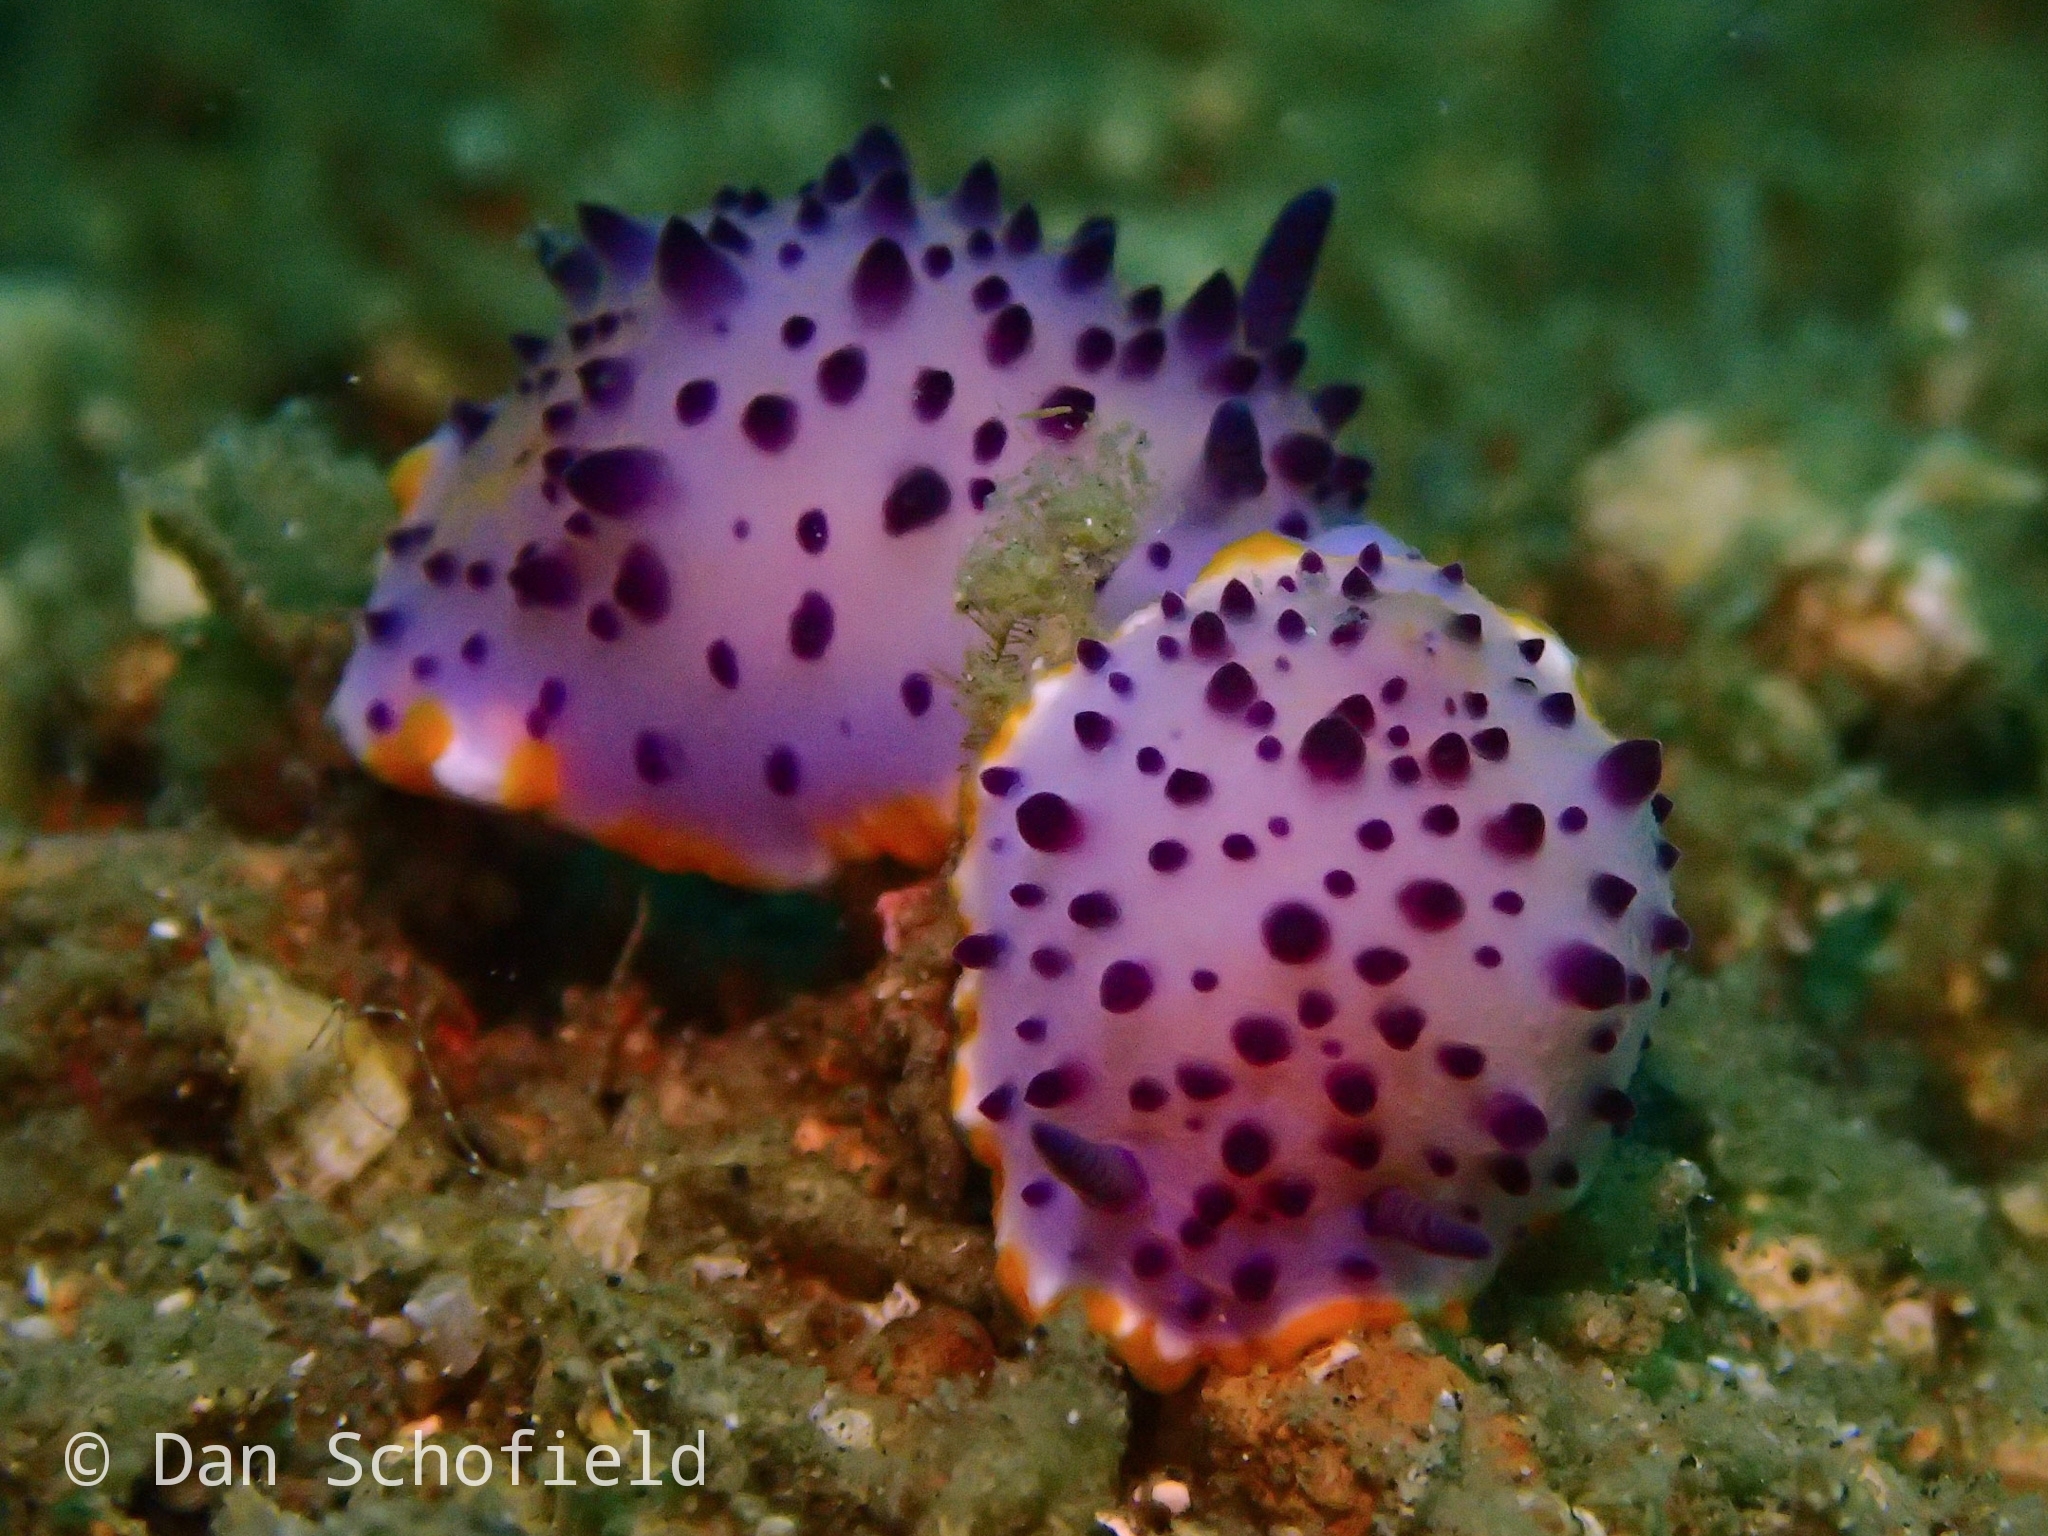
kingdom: Animalia
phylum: Mollusca
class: Gastropoda
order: Nudibranchia
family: Chromodorididae
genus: Mexichromis
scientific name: Mexichromis mariei
